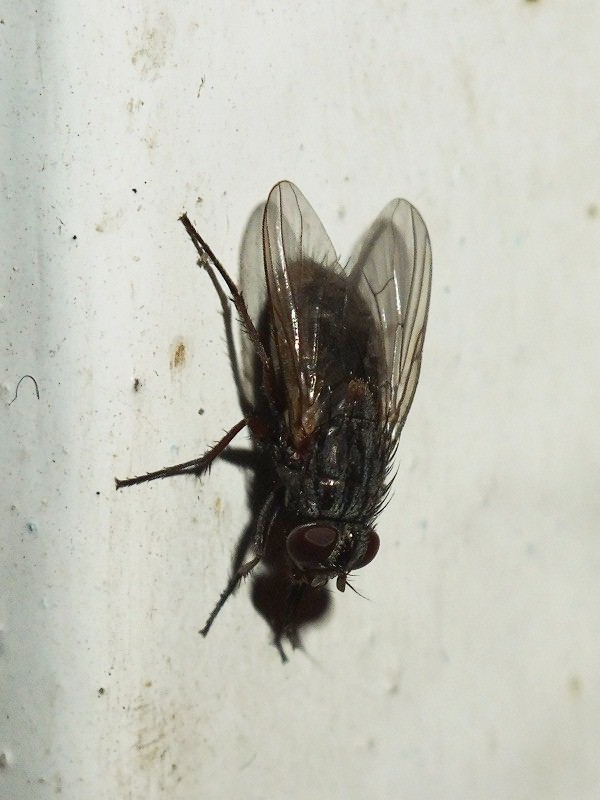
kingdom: Animalia
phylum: Arthropoda
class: Insecta
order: Diptera
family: Muscidae
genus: Muscina
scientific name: Muscina stabulans
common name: False stable fly
